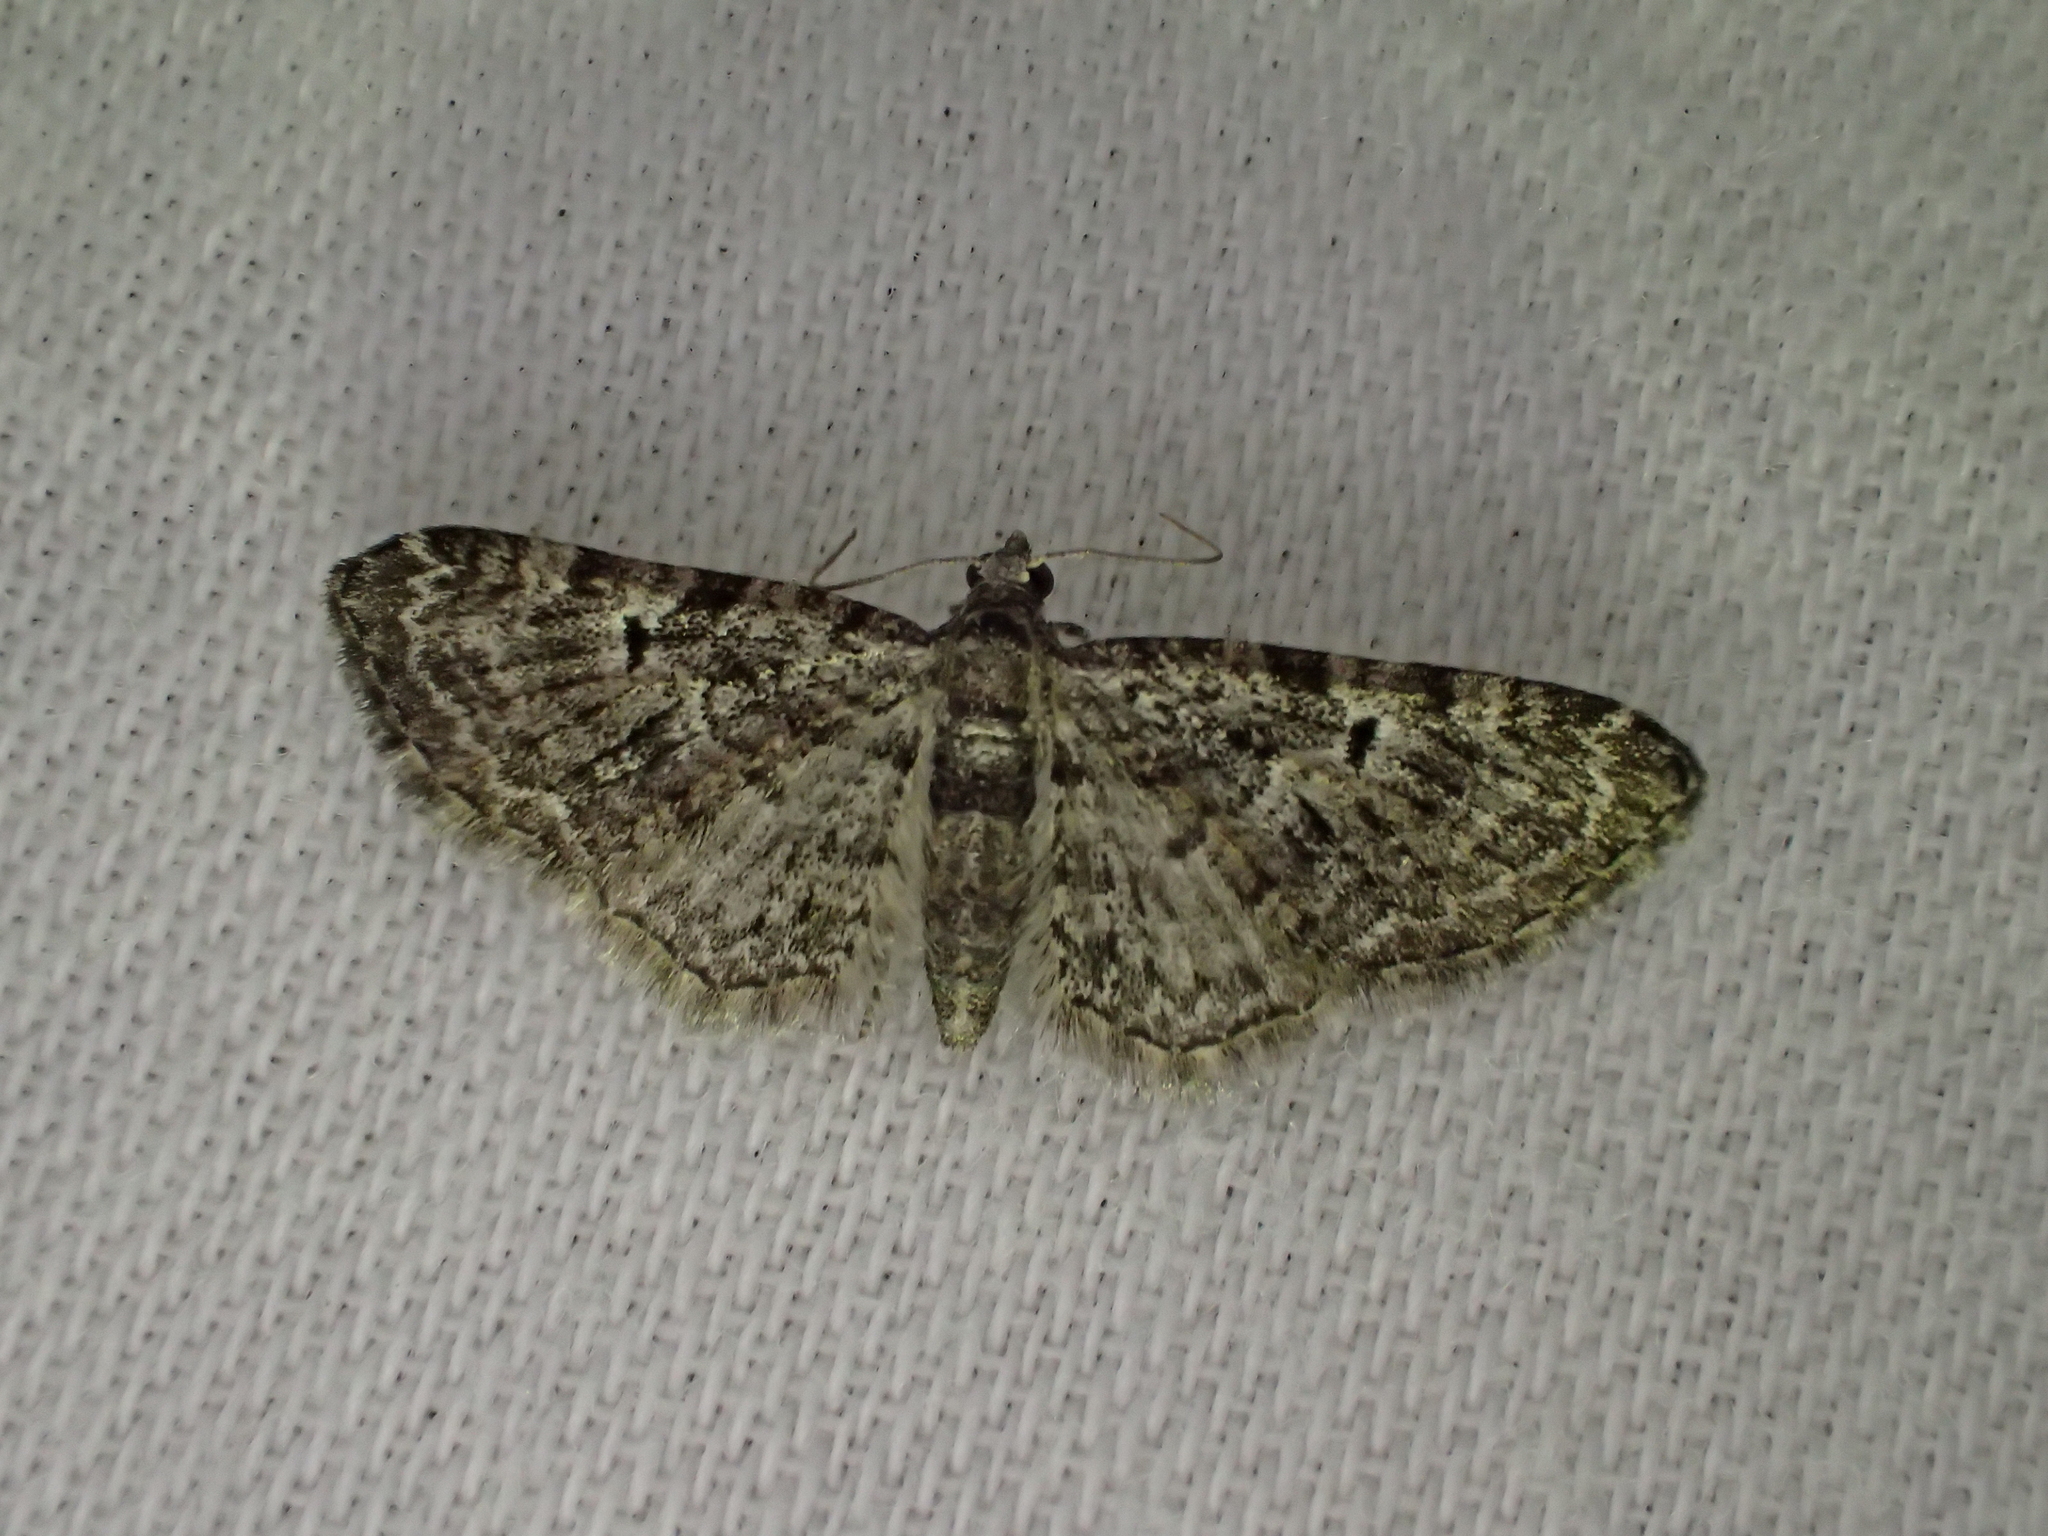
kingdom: Animalia
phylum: Arthropoda
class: Insecta
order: Lepidoptera
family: Geometridae
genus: Eupithecia
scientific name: Eupithecia dodoneata
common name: Oak-tree pug
